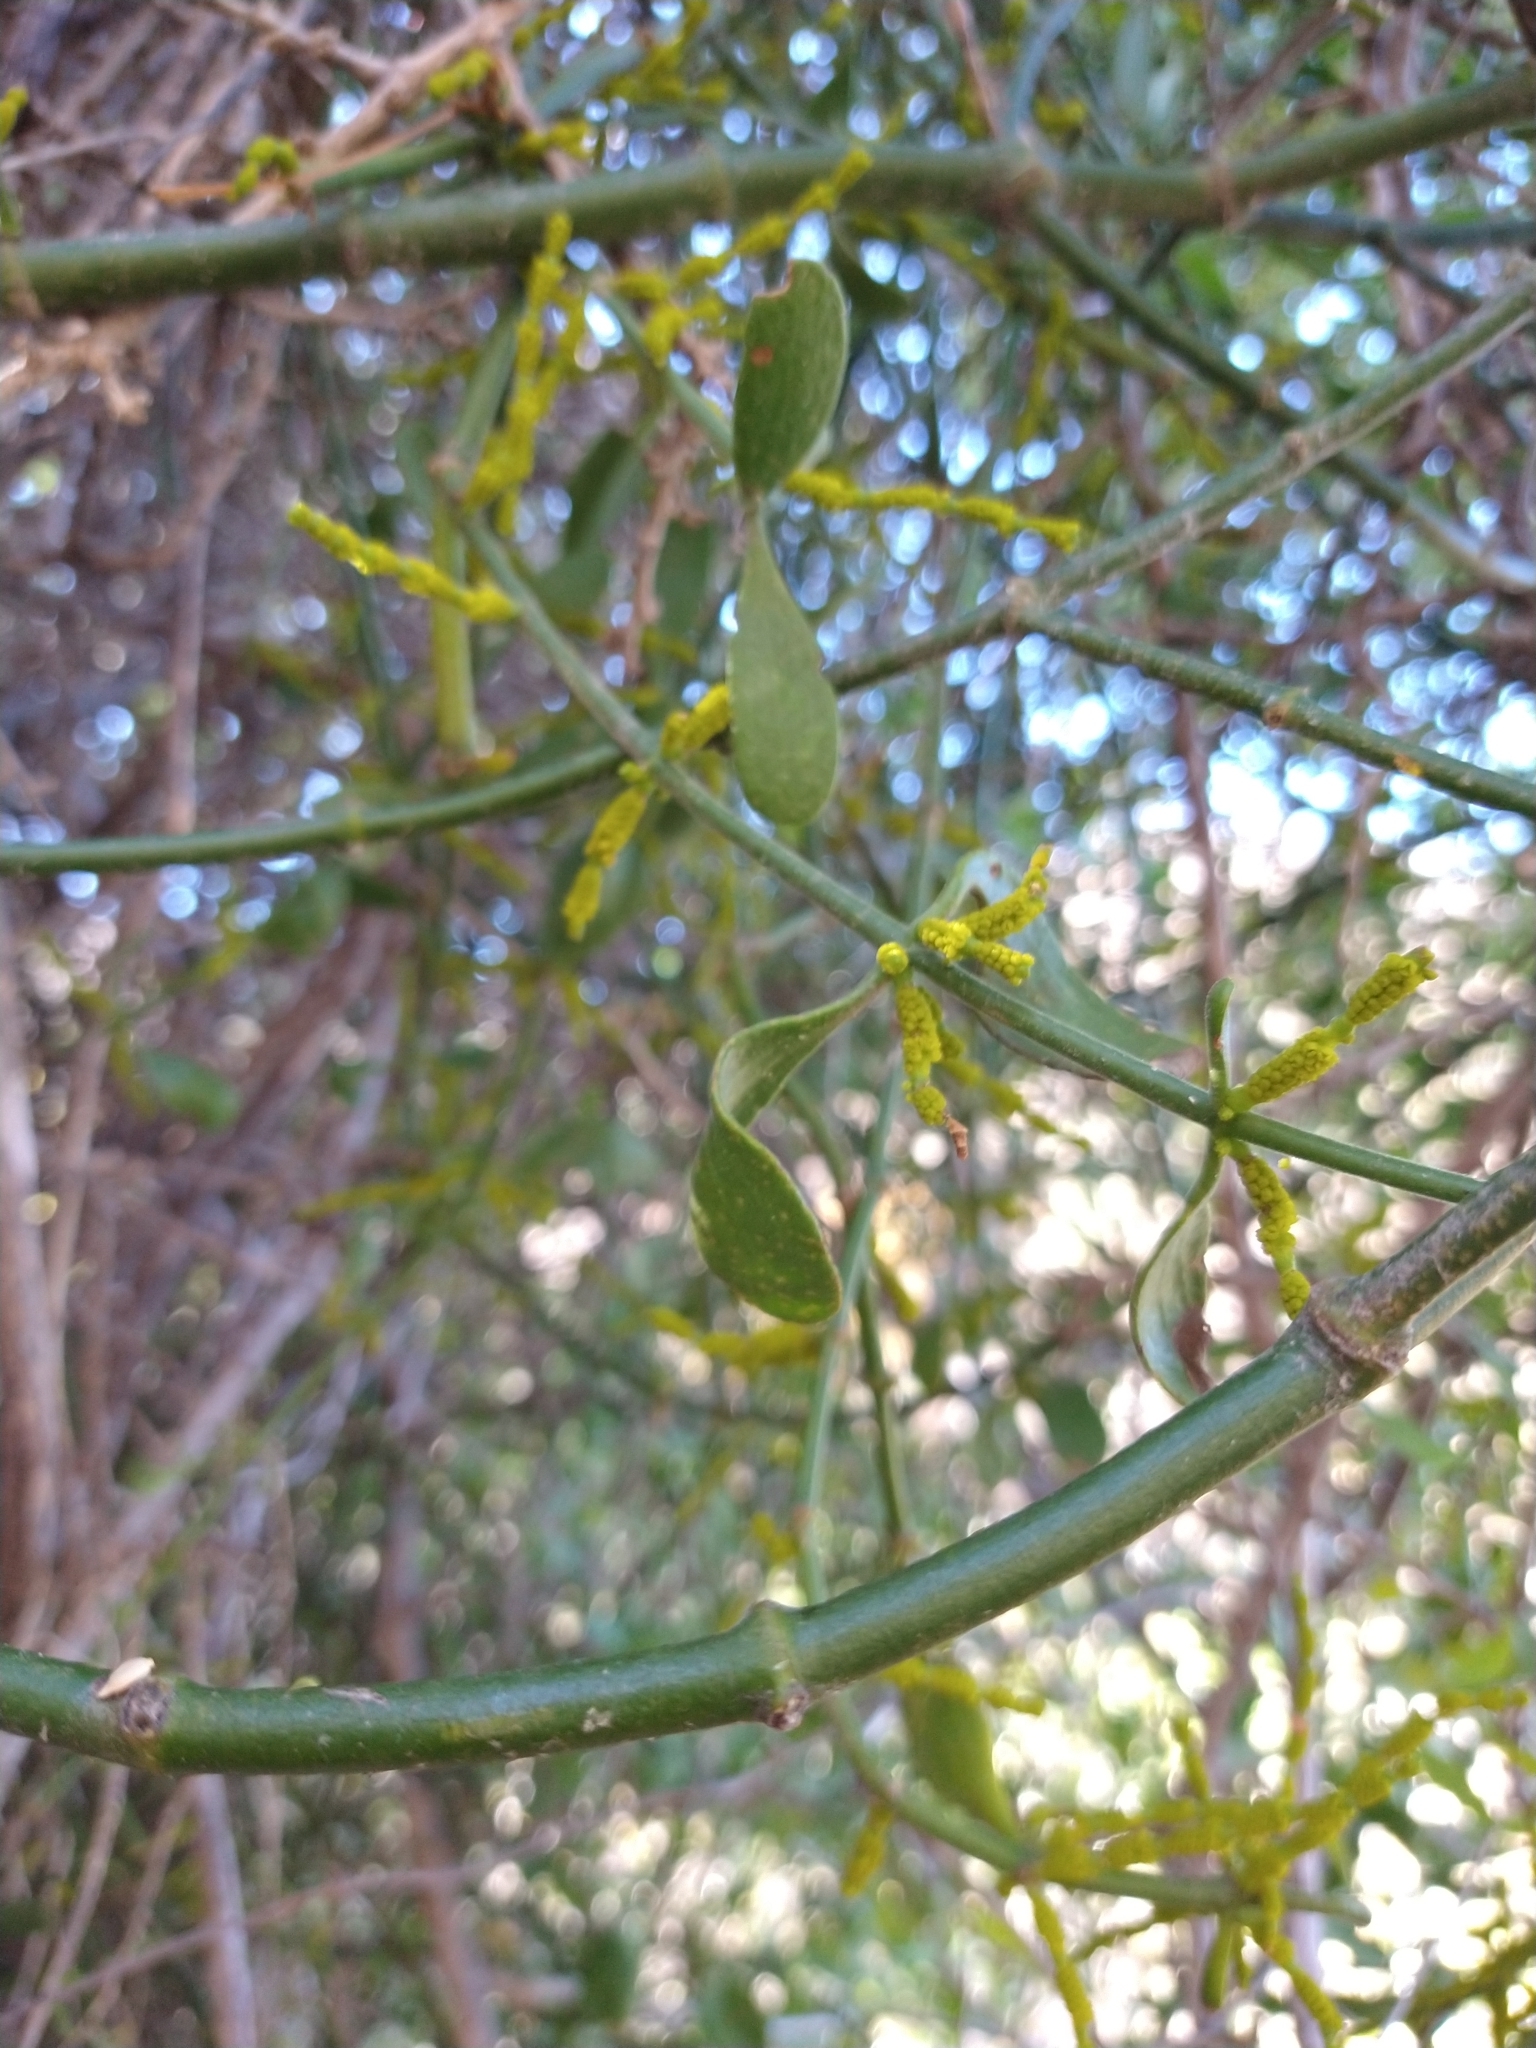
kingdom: Plantae
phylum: Tracheophyta
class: Magnoliopsida
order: Santalales
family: Viscaceae
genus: Phoradendron
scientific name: Phoradendron brachystachyum
